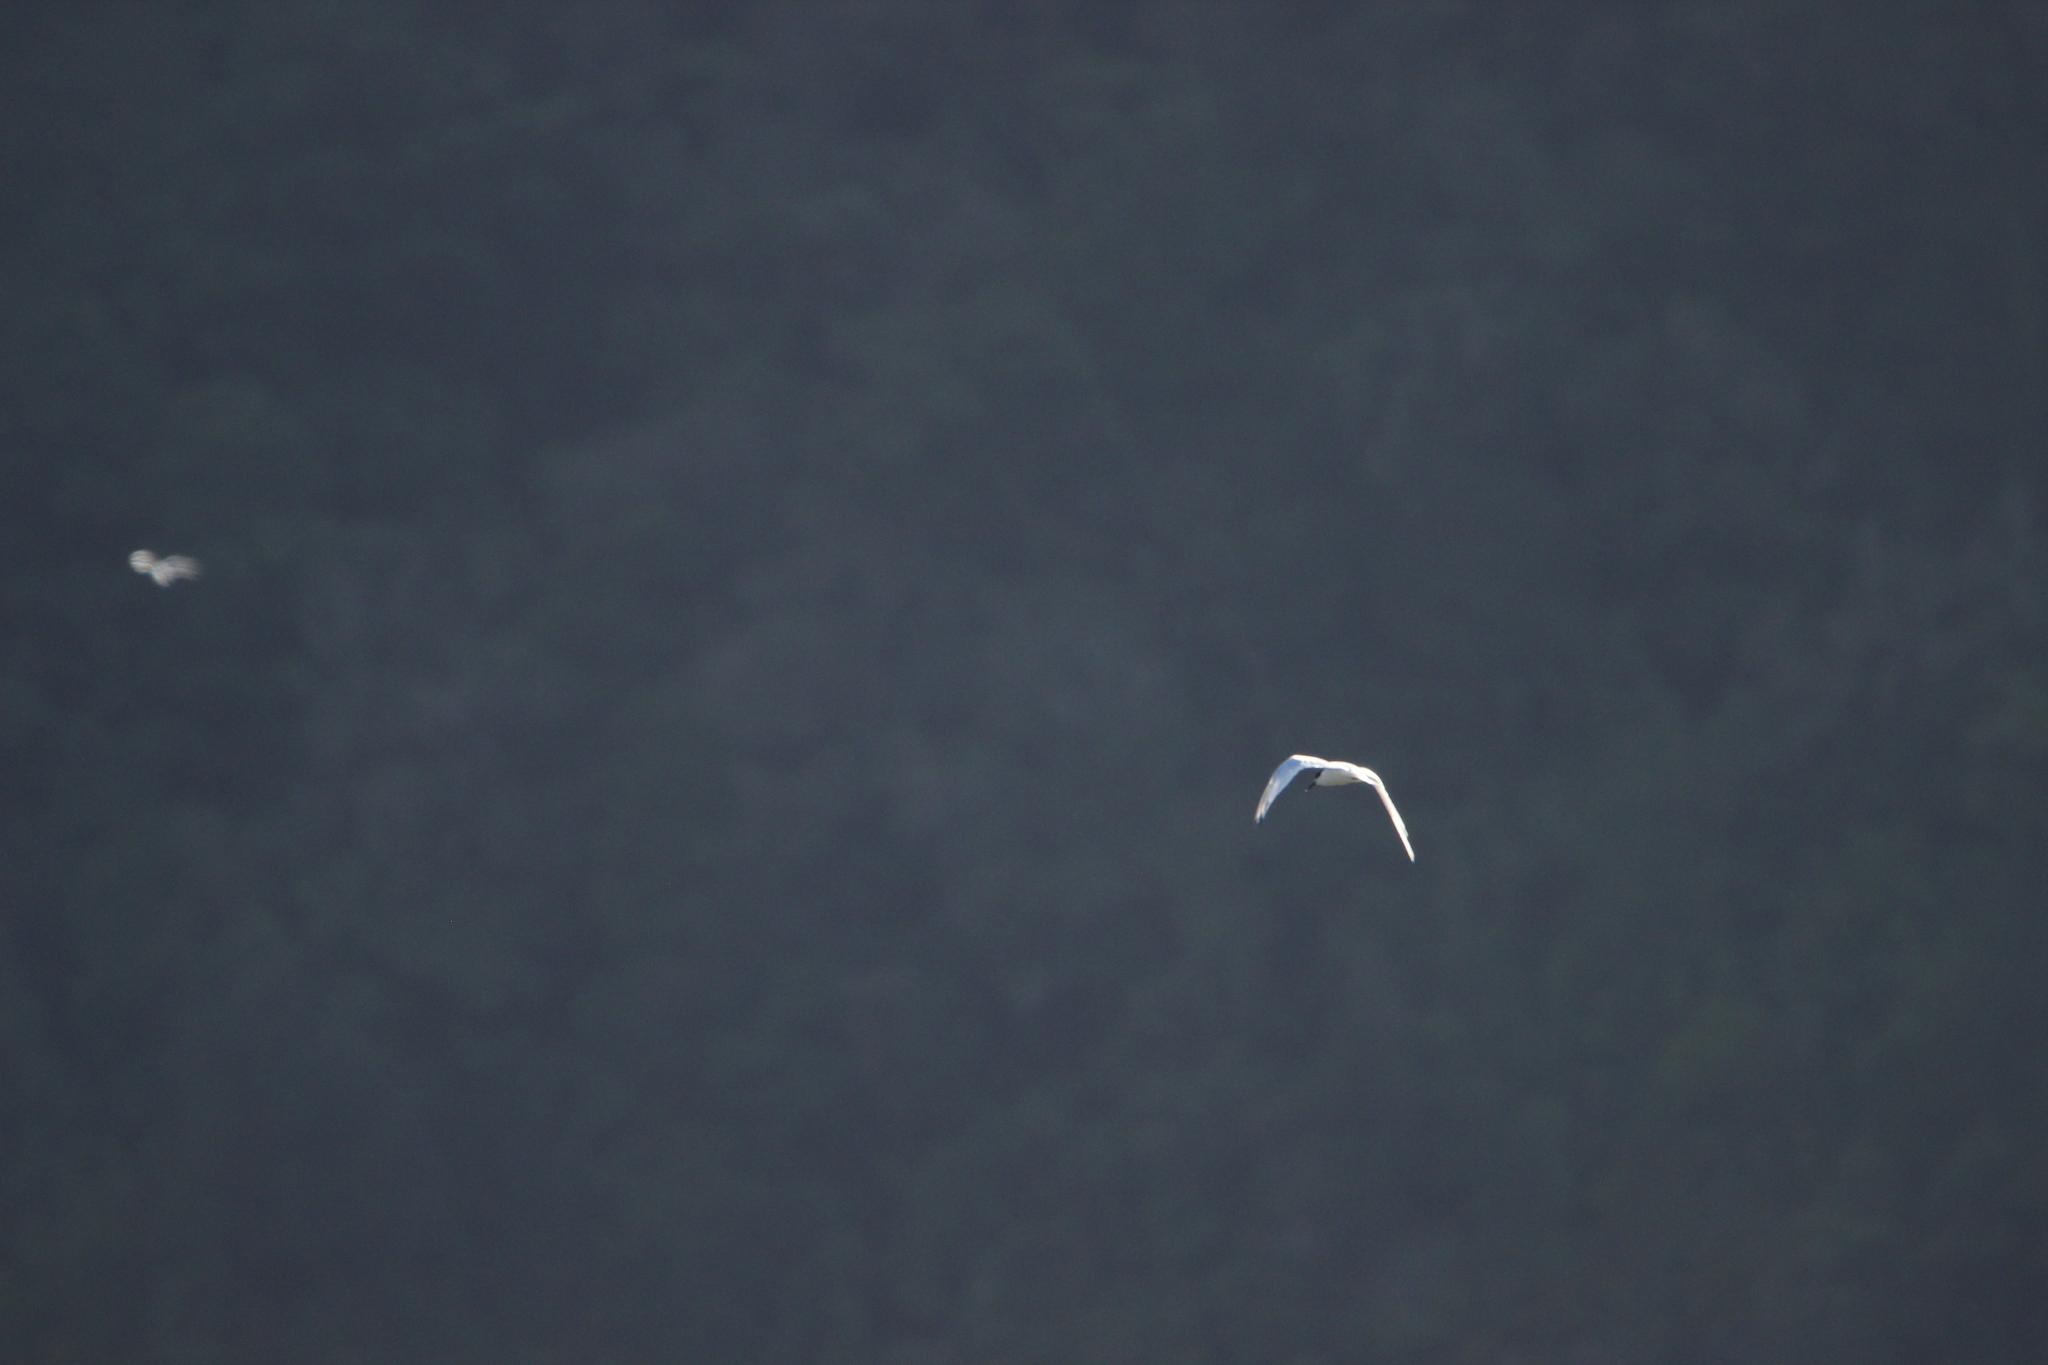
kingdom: Animalia
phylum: Chordata
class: Aves
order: Charadriiformes
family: Laridae
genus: Sterna
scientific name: Sterna striata
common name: White-fronted tern
